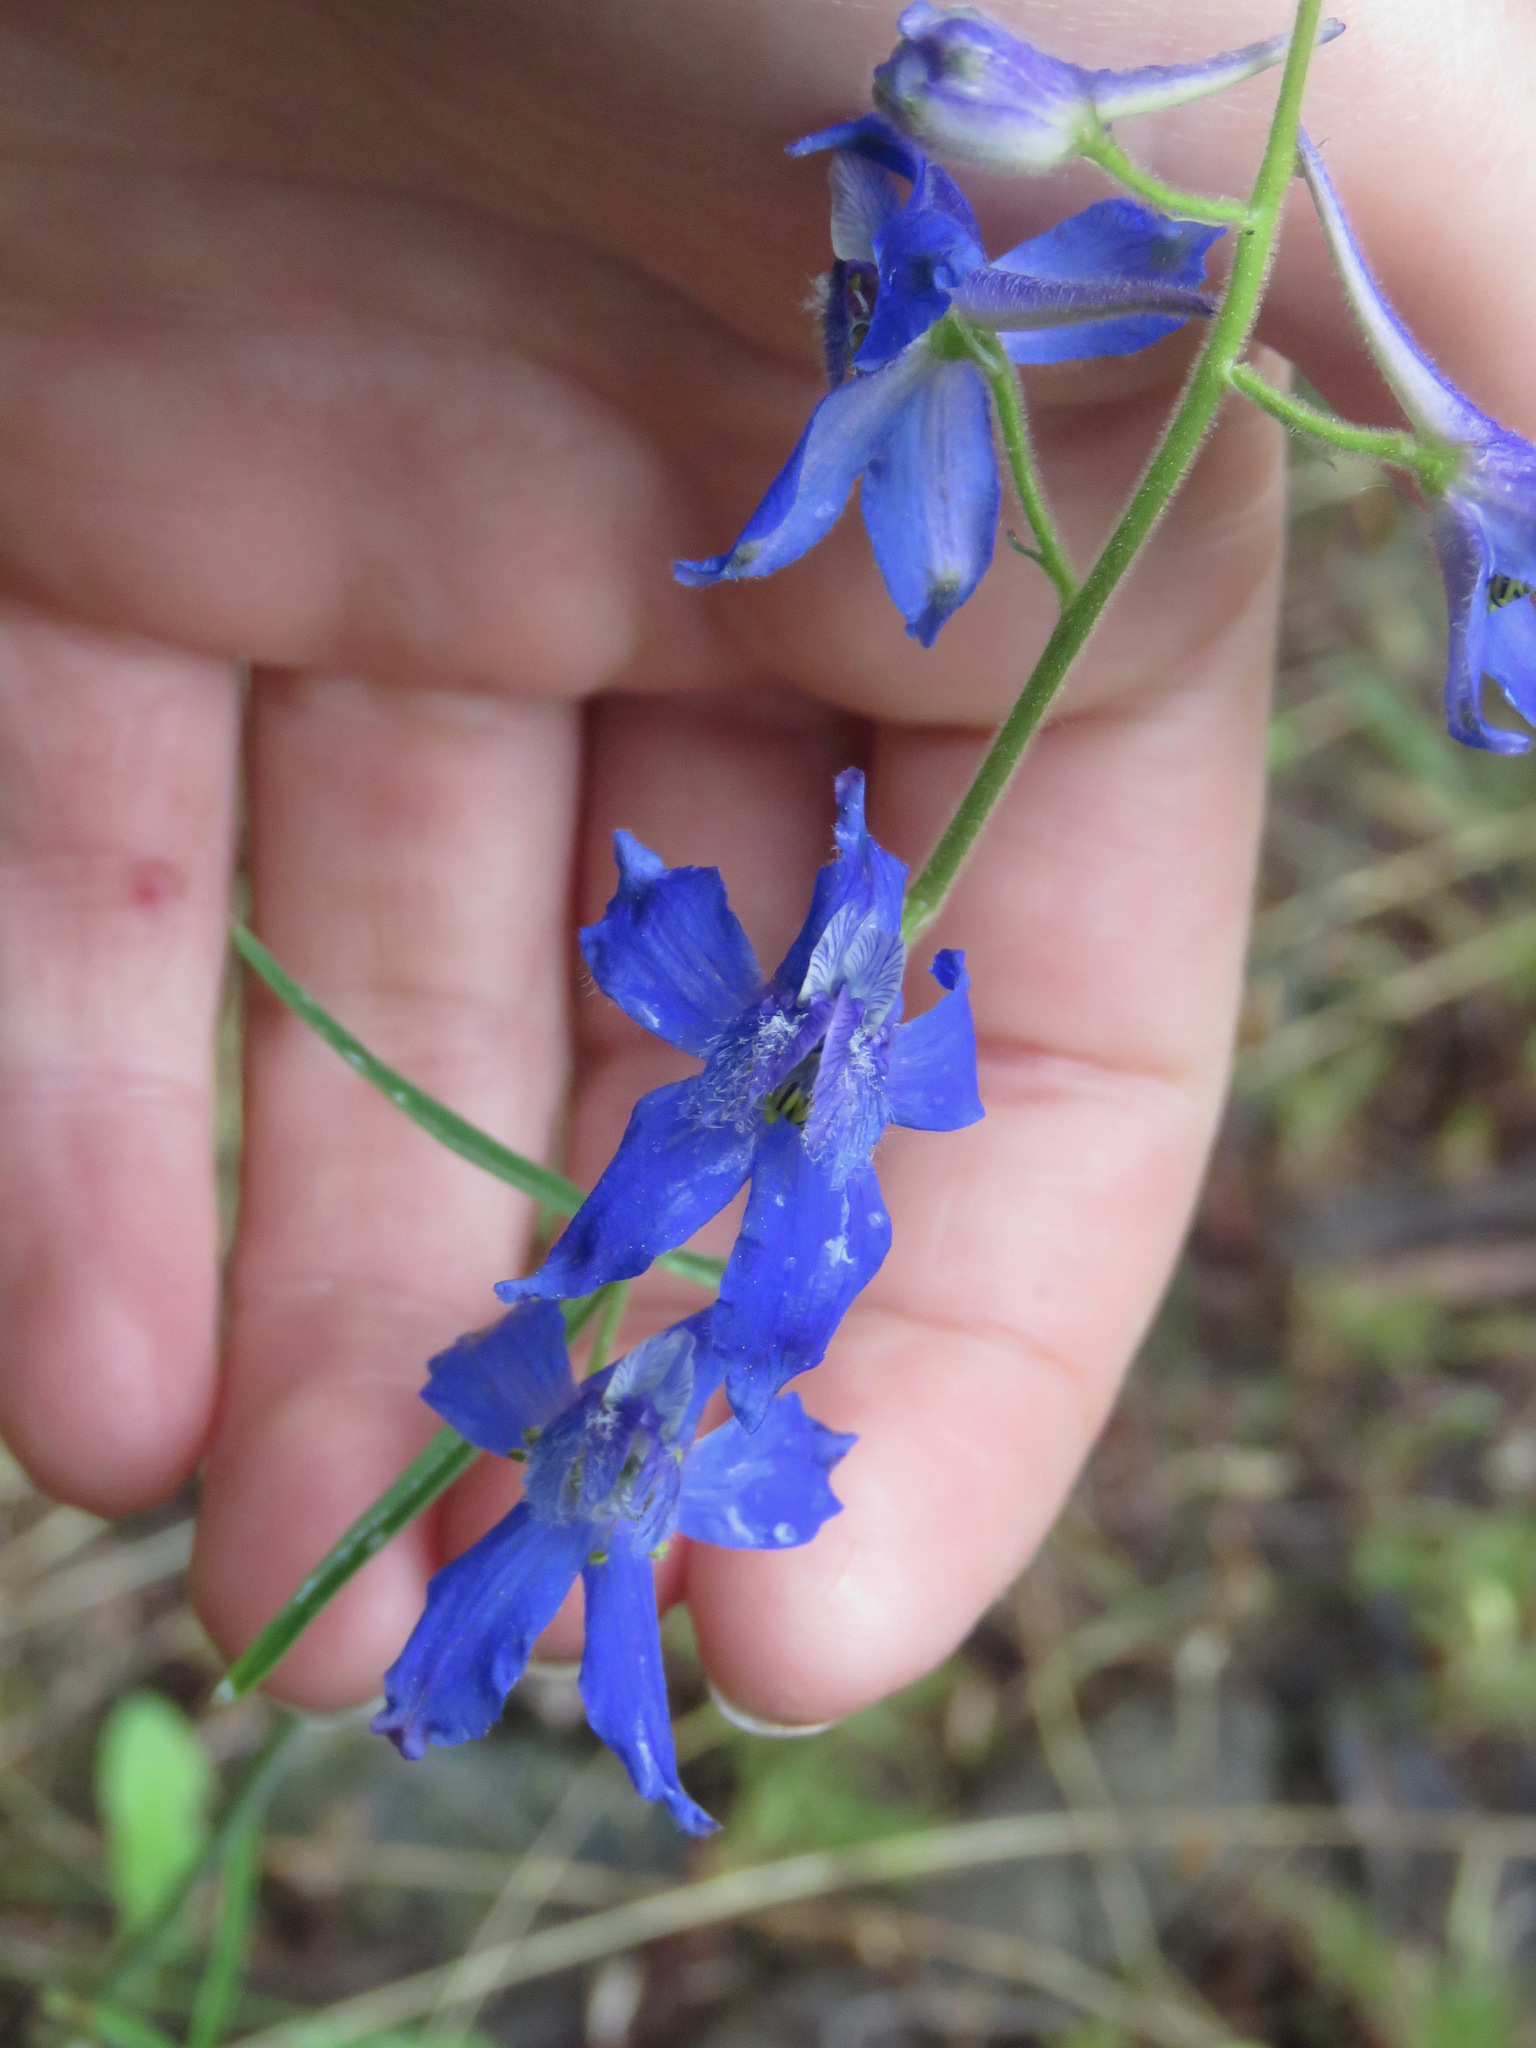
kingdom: Plantae
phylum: Tracheophyta
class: Magnoliopsida
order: Ranunculales
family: Ranunculaceae
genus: Delphinium
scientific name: Delphinium nuttallianum
